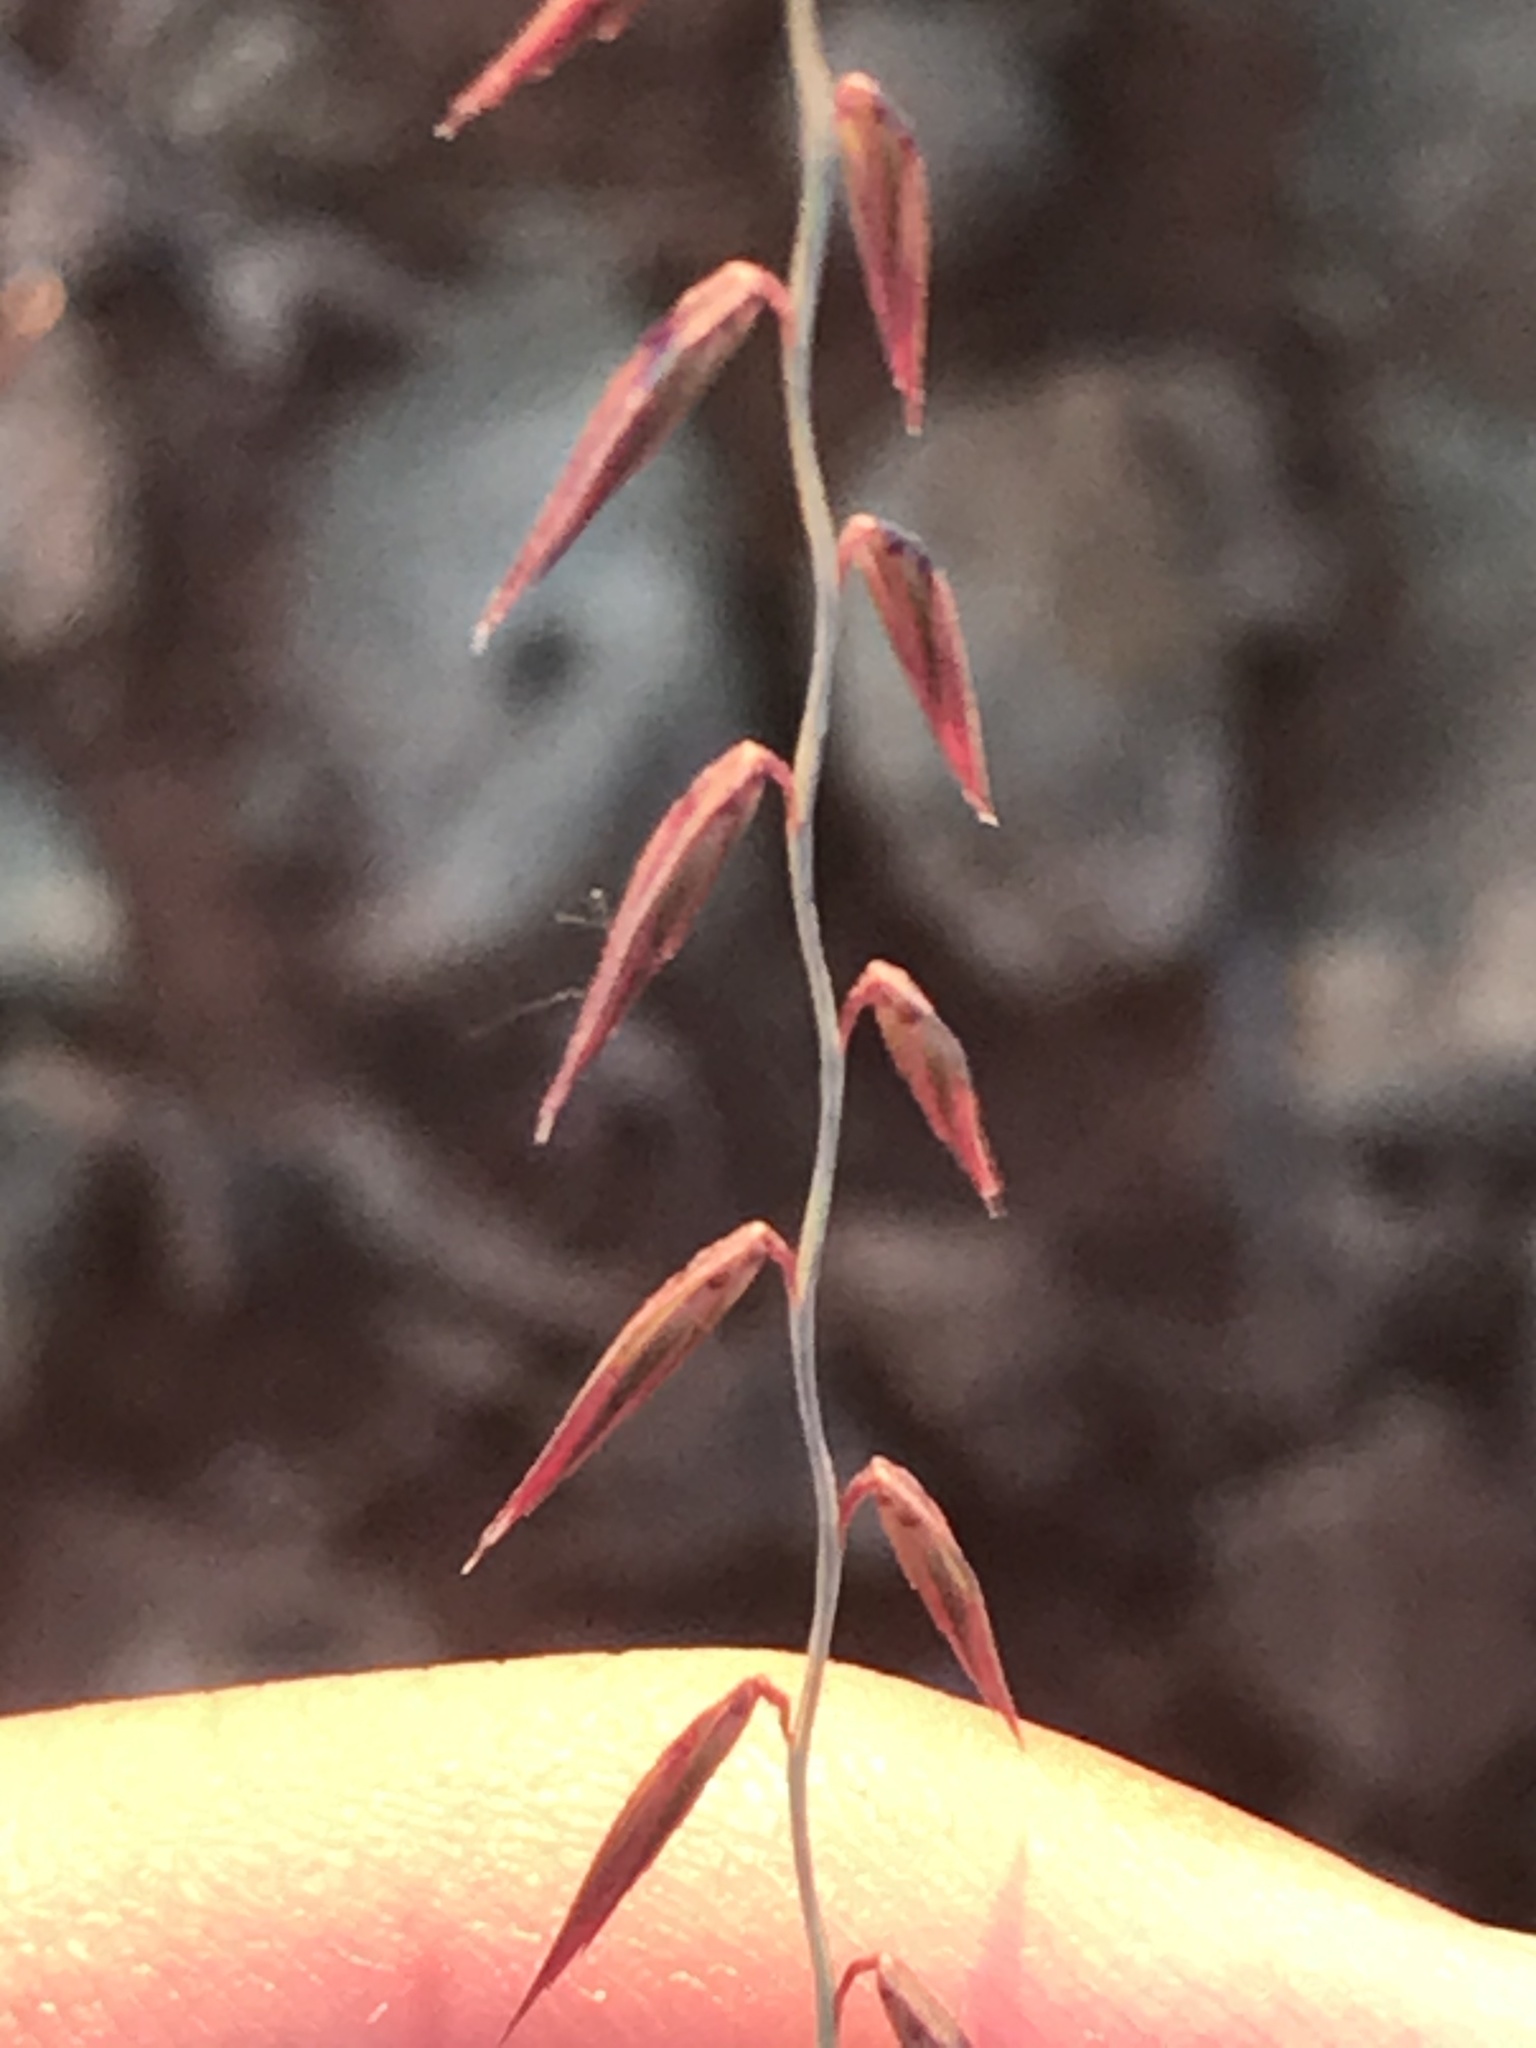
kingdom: Plantae
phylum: Tracheophyta
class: Liliopsida
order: Poales
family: Poaceae
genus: Bouteloua
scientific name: Bouteloua curtipendula
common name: Side-oats grama
